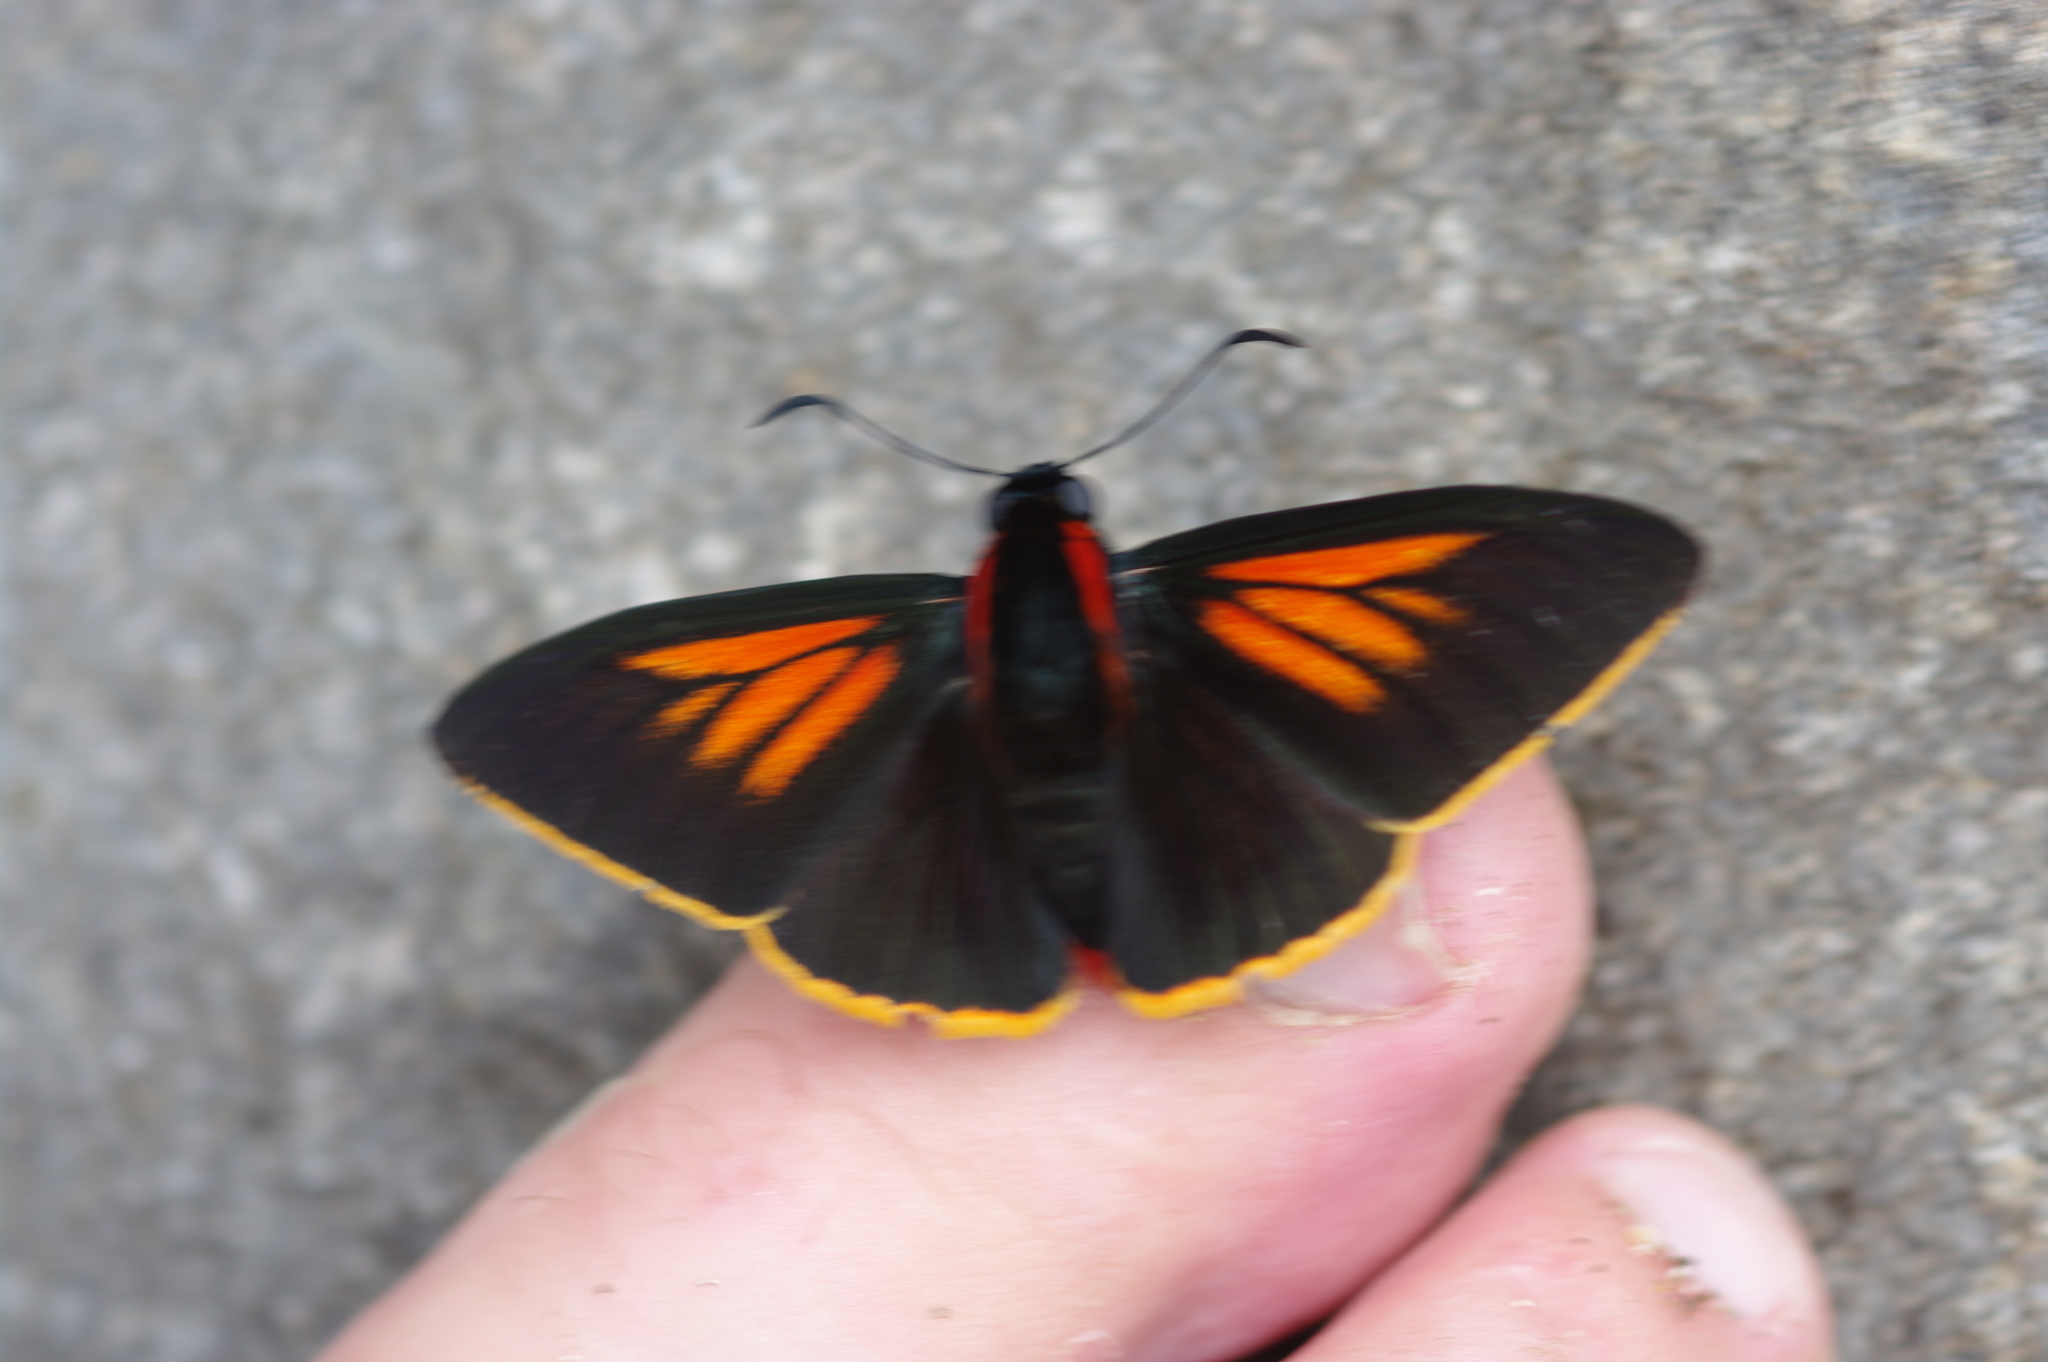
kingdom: Animalia
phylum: Arthropoda
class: Insecta
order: Lepidoptera
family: Hesperiidae
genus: Pyrrhopyge
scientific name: Pyrrhopyge kelita
